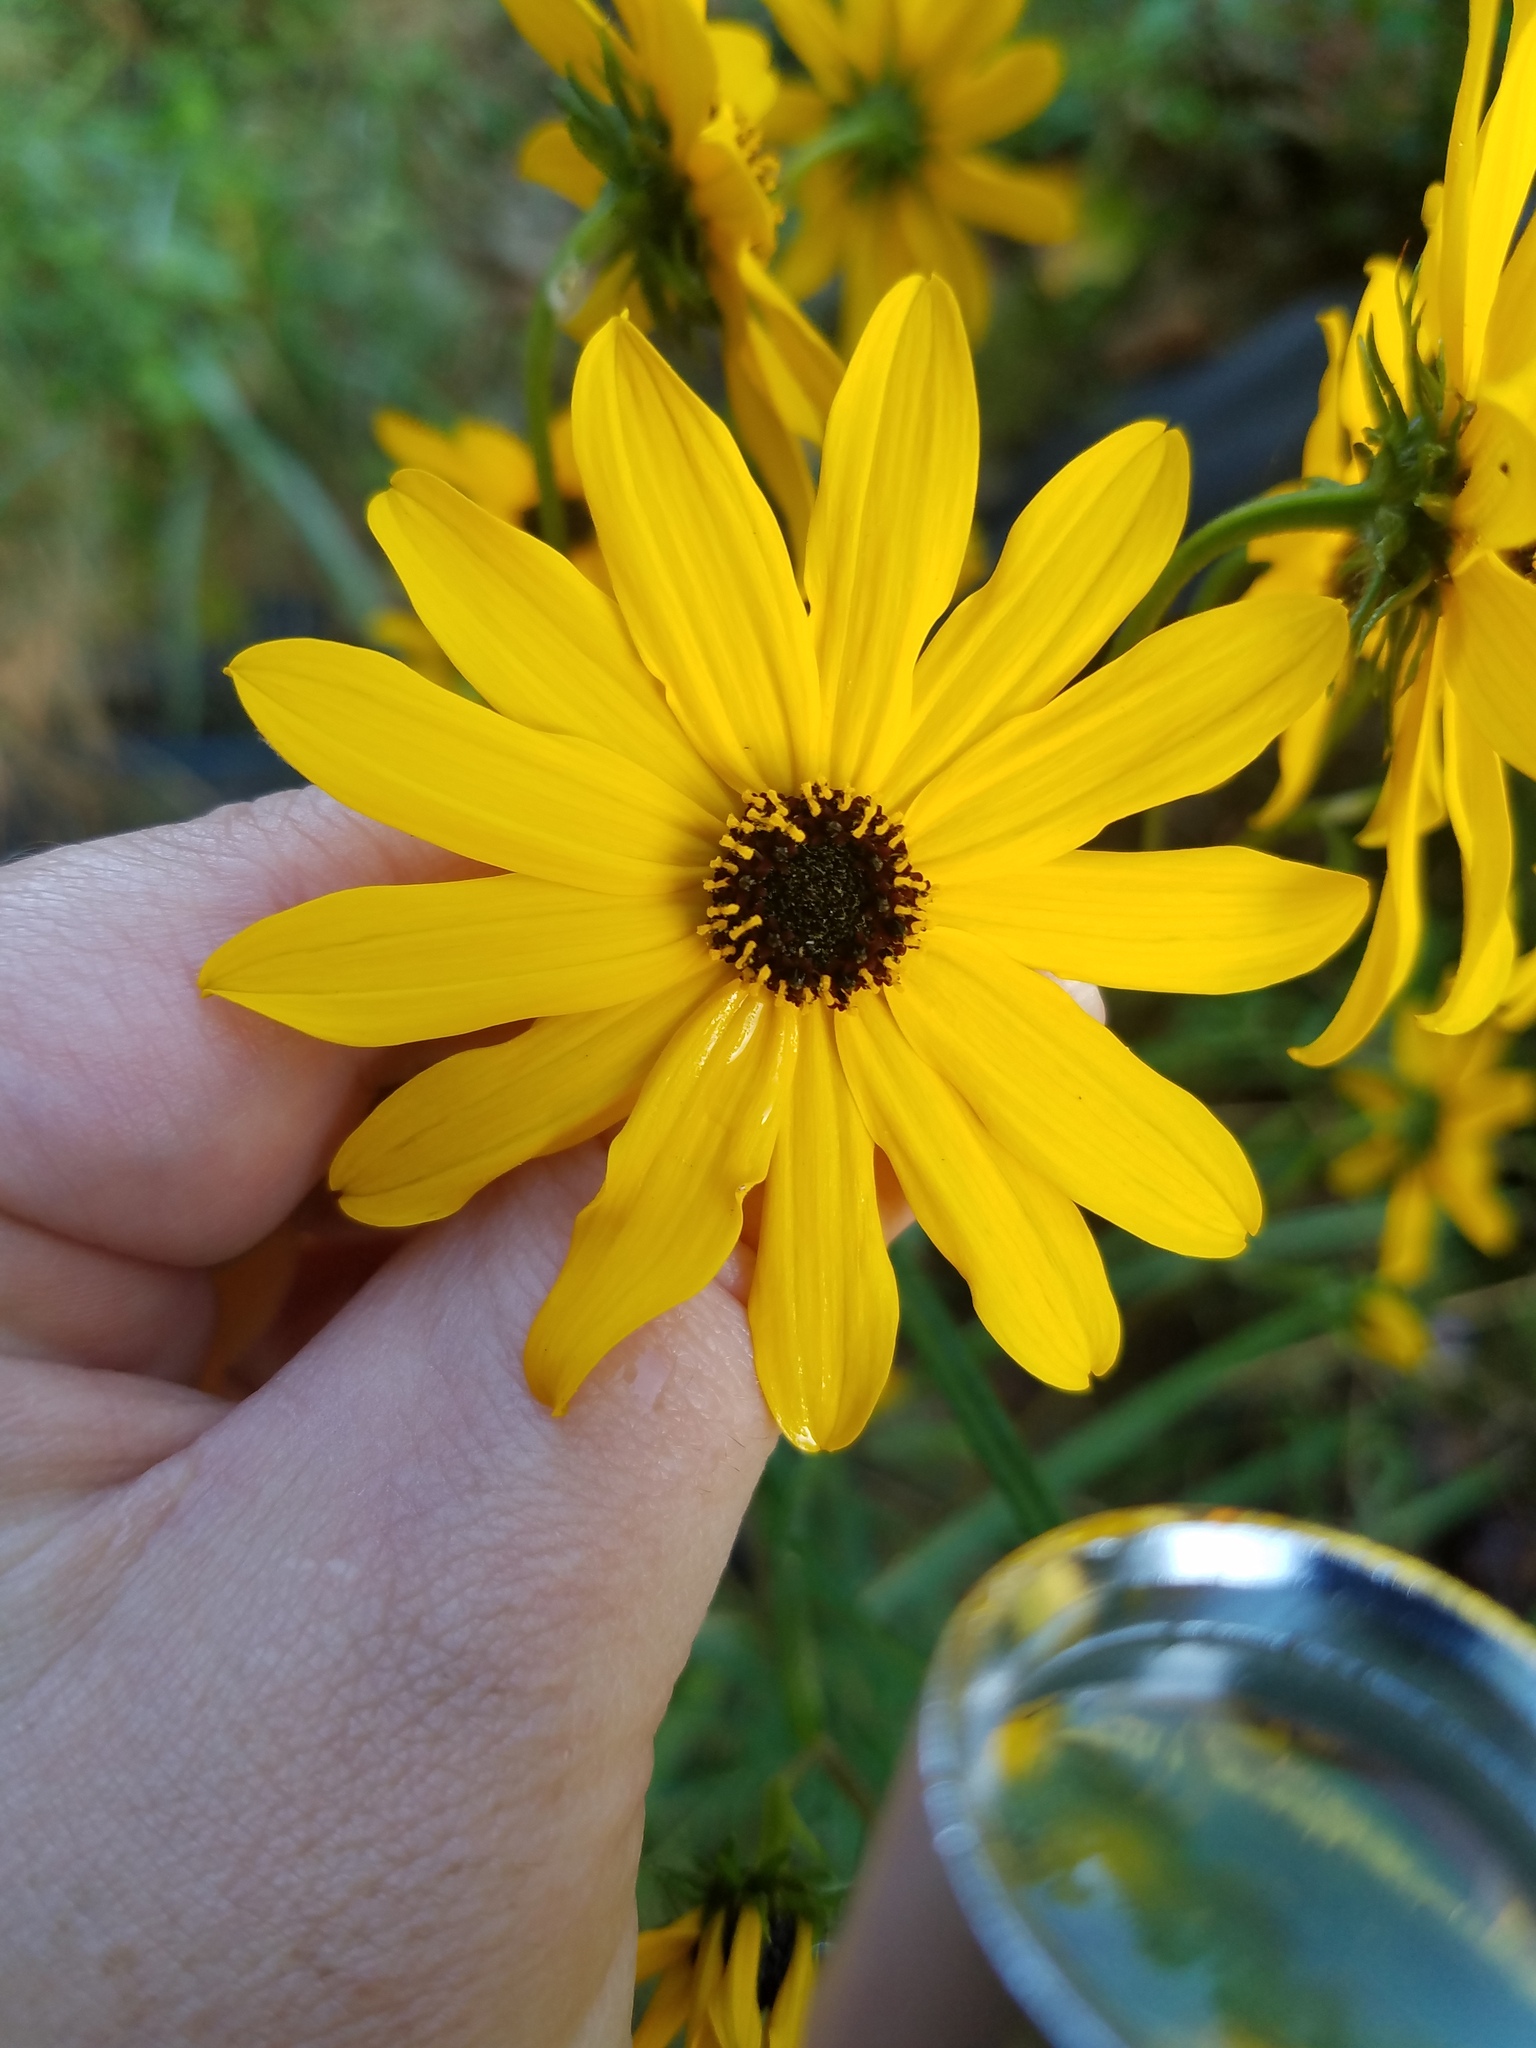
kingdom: Plantae
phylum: Tracheophyta
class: Magnoliopsida
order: Asterales
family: Asteraceae
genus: Helianthus
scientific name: Helianthus angustifolius
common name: Swamp sunflower
